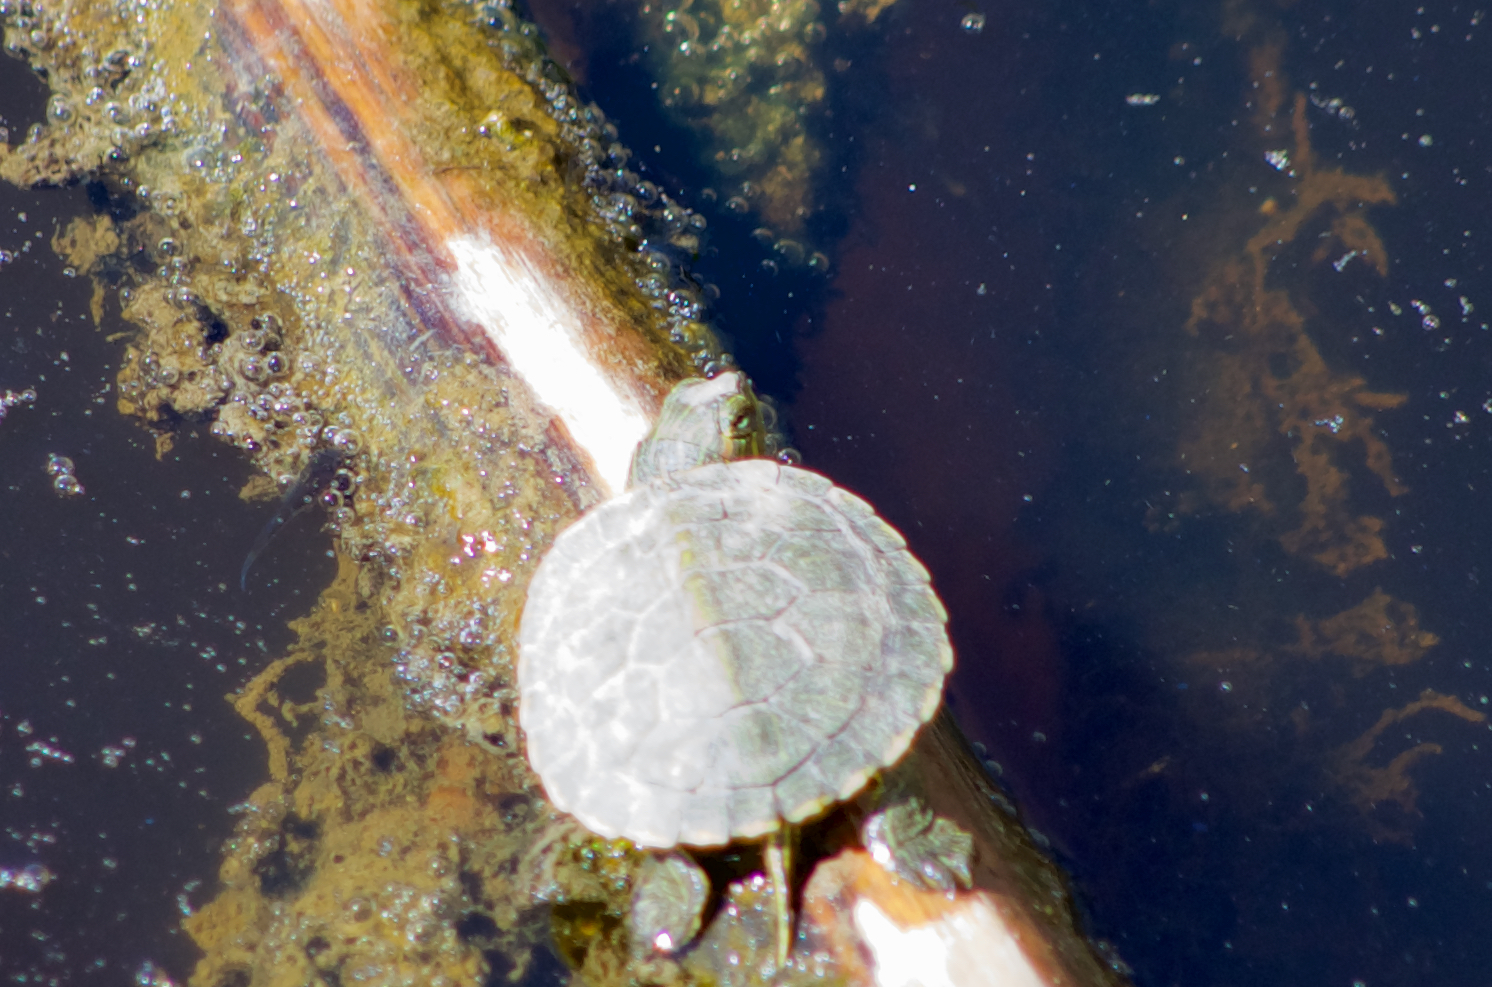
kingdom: Animalia
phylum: Chordata
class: Testudines
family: Emydidae
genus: Trachemys
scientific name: Trachemys scripta
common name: Slider
